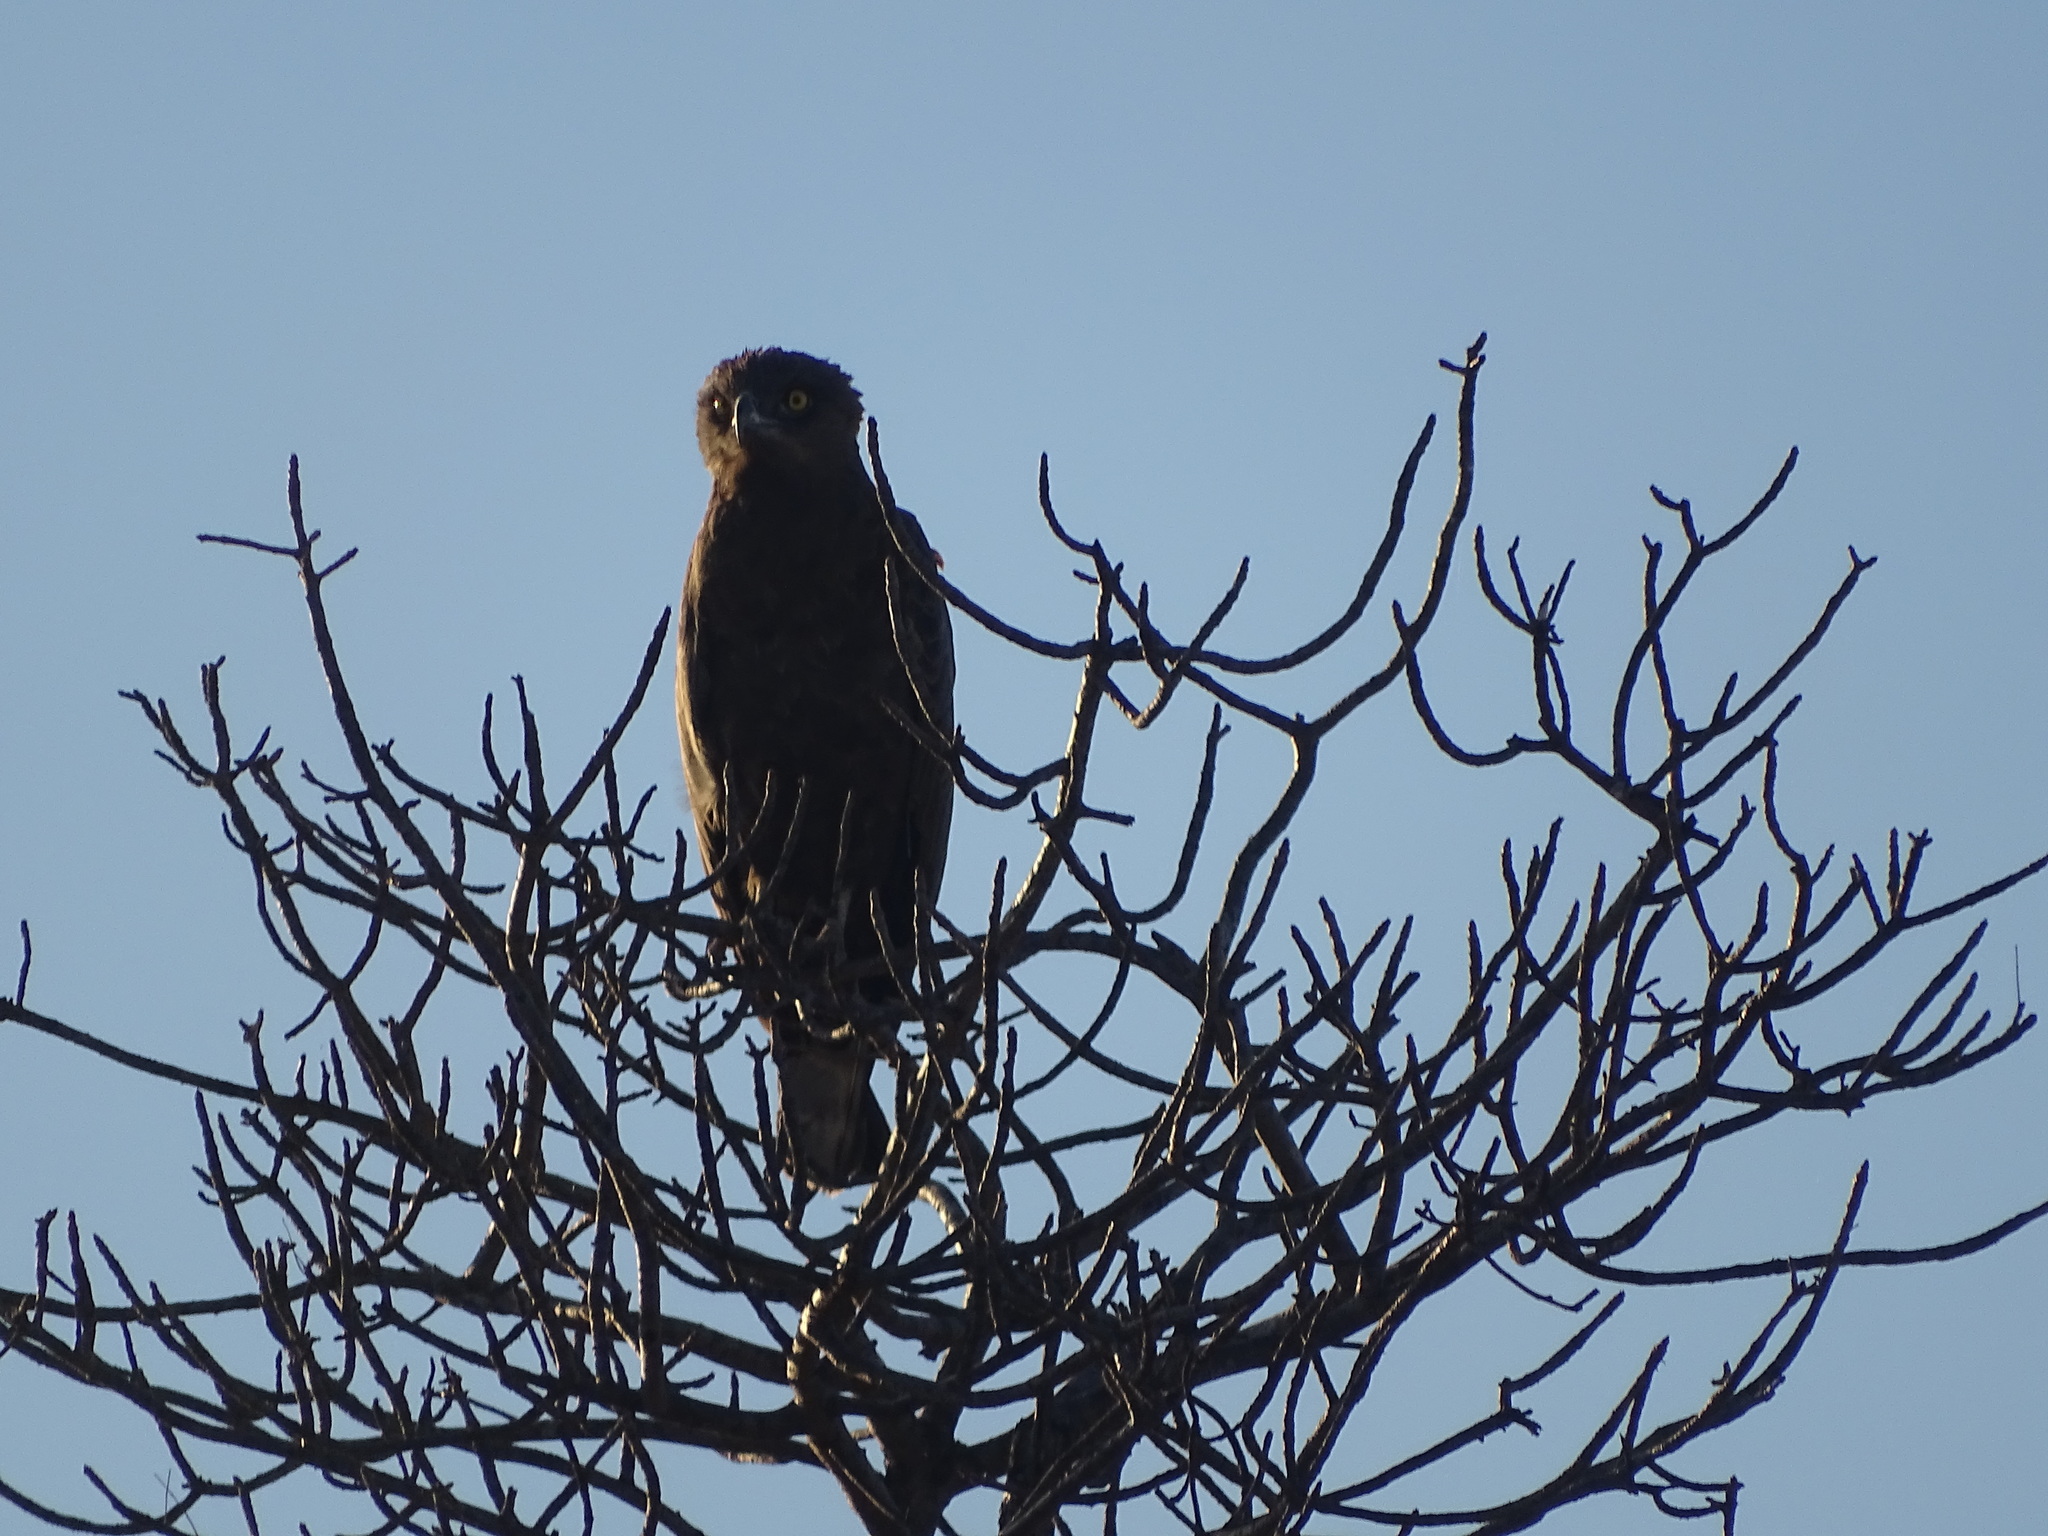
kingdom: Animalia
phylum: Chordata
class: Aves
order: Accipitriformes
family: Accipitridae
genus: Circaetus
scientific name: Circaetus cinereus
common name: Brown snake eagle
